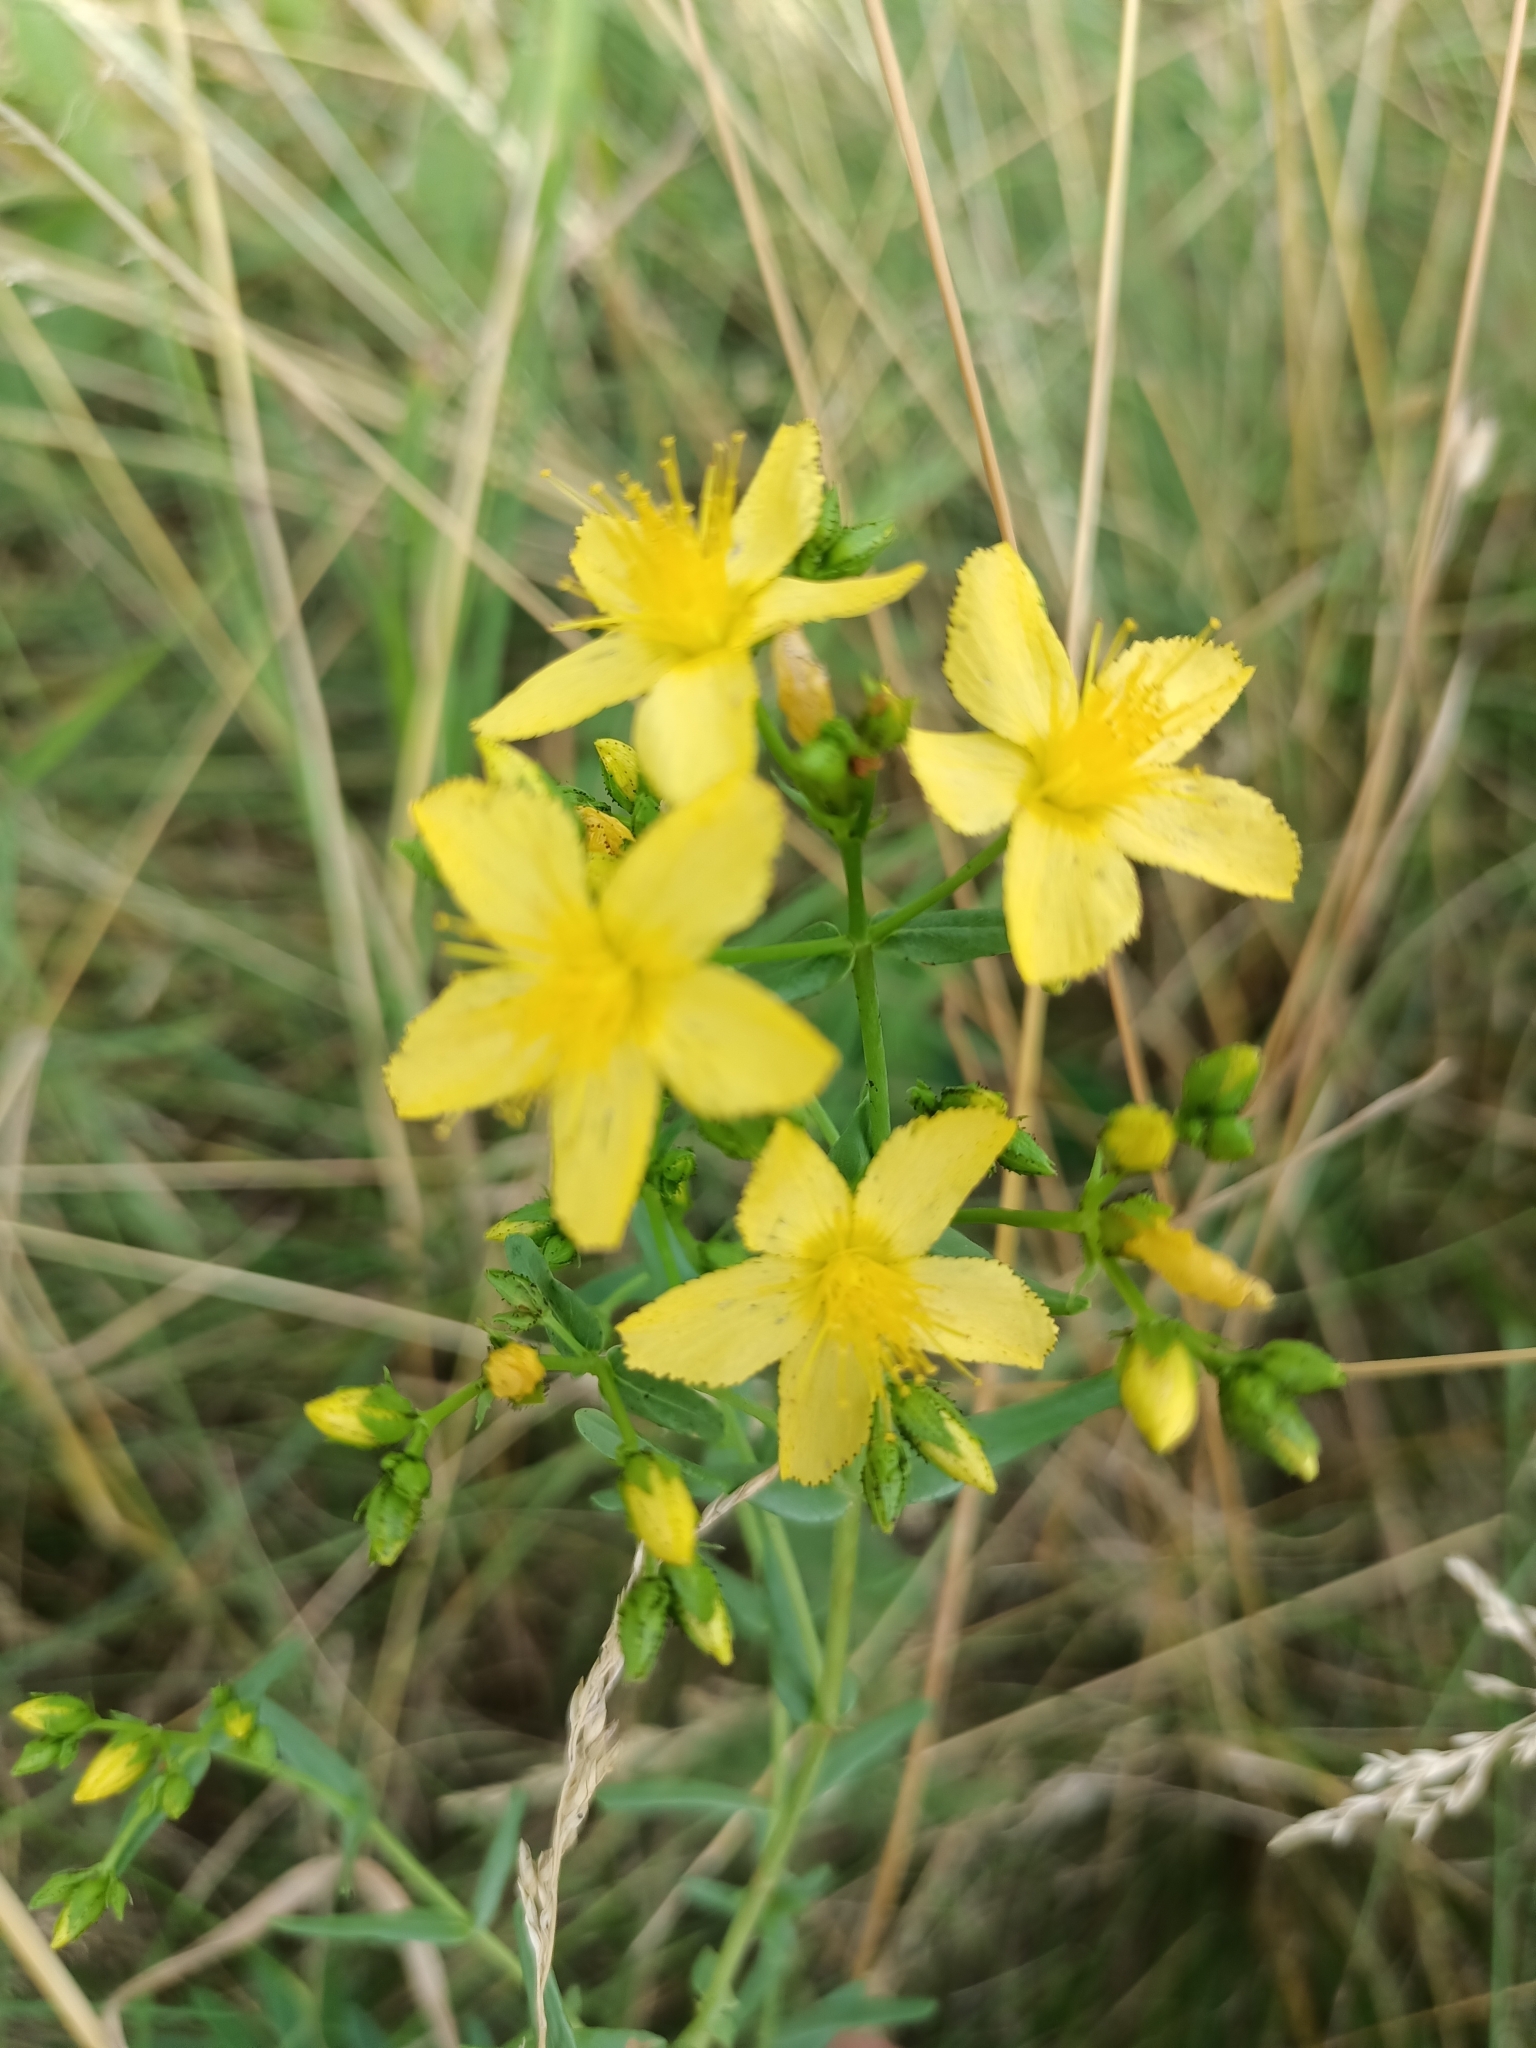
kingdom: Plantae
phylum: Tracheophyta
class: Magnoliopsida
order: Malpighiales
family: Hypericaceae
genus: Hypericum
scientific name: Hypericum elegans
